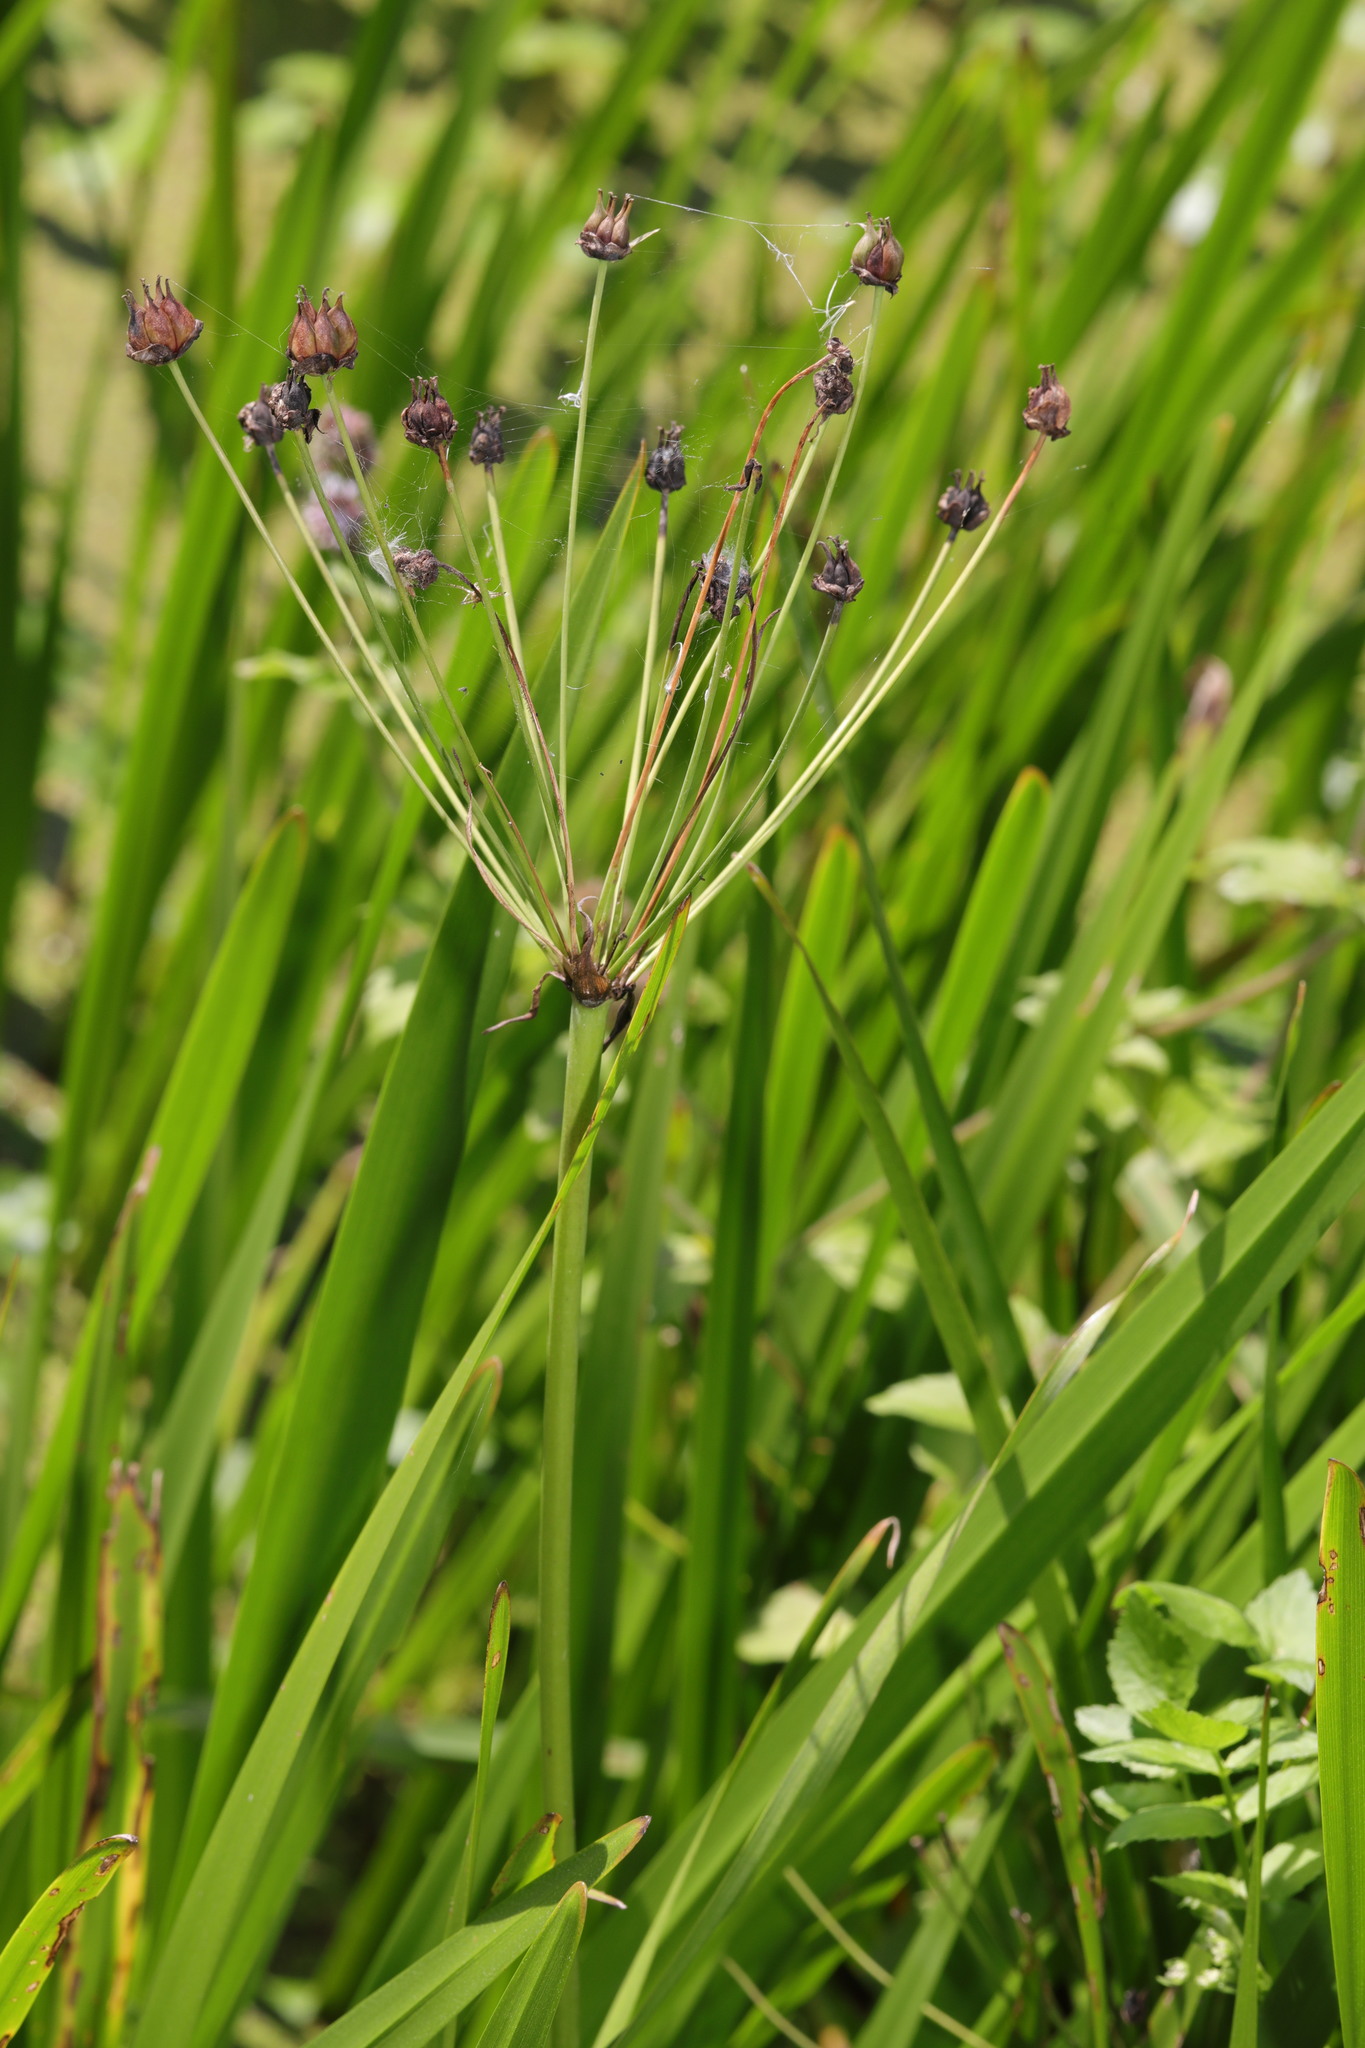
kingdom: Plantae
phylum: Tracheophyta
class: Liliopsida
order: Alismatales
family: Butomaceae
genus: Butomus
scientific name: Butomus umbellatus
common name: Flowering-rush
